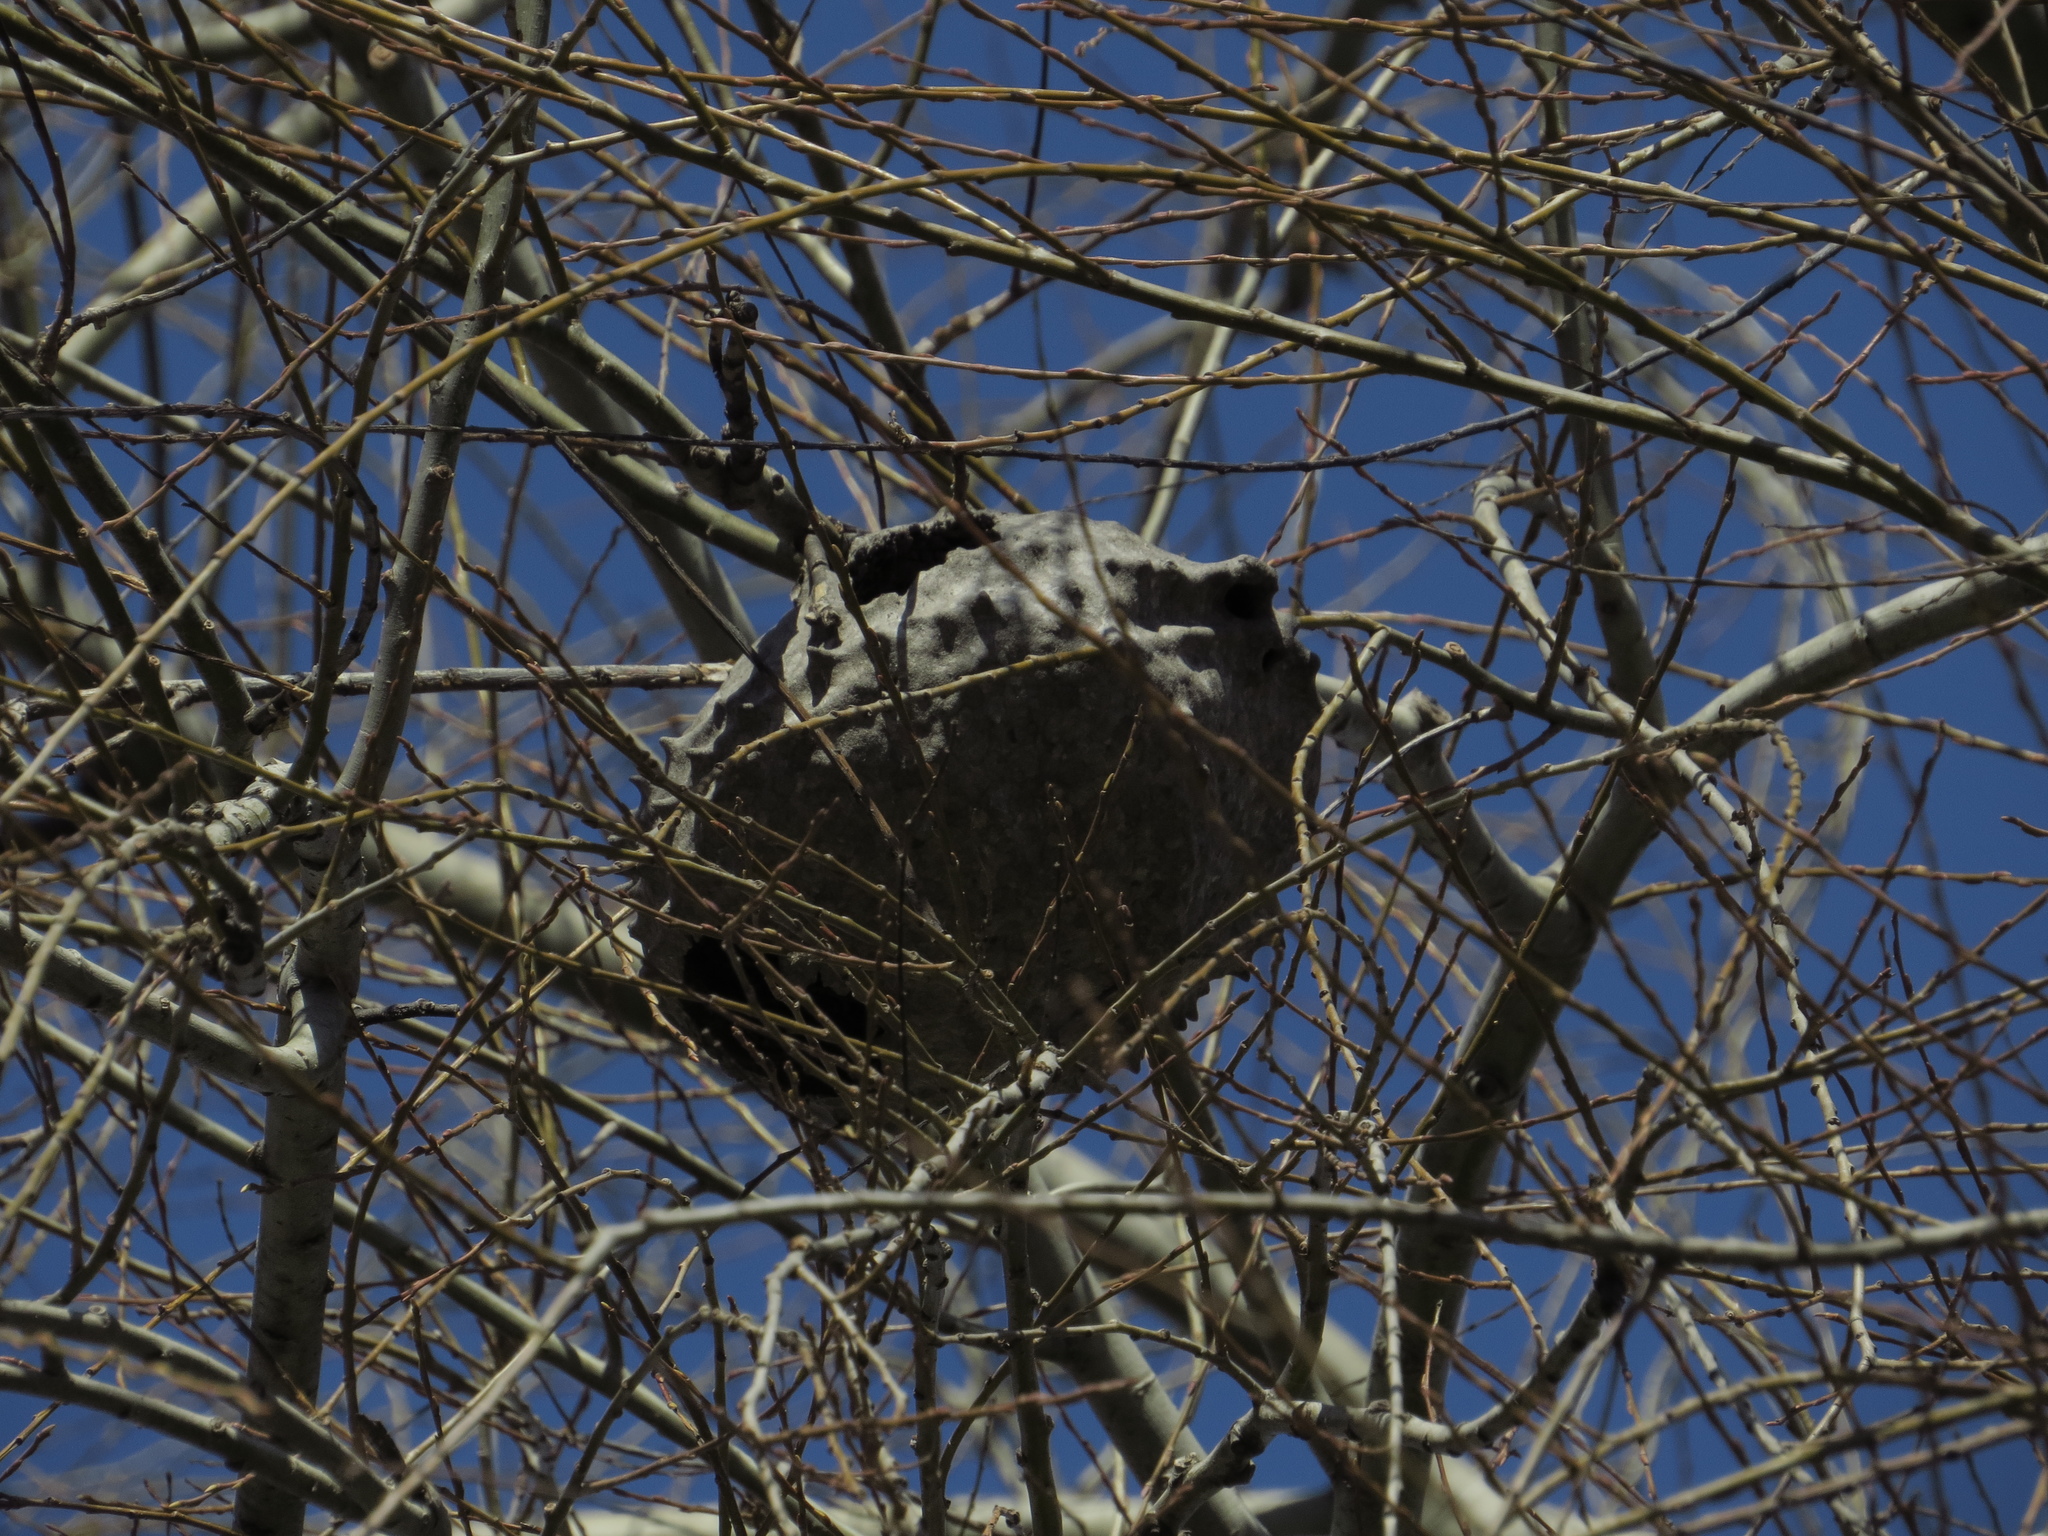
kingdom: Animalia
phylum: Arthropoda
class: Insecta
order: Hymenoptera
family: Eumenidae
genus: Polybia
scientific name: Polybia scutellaris
